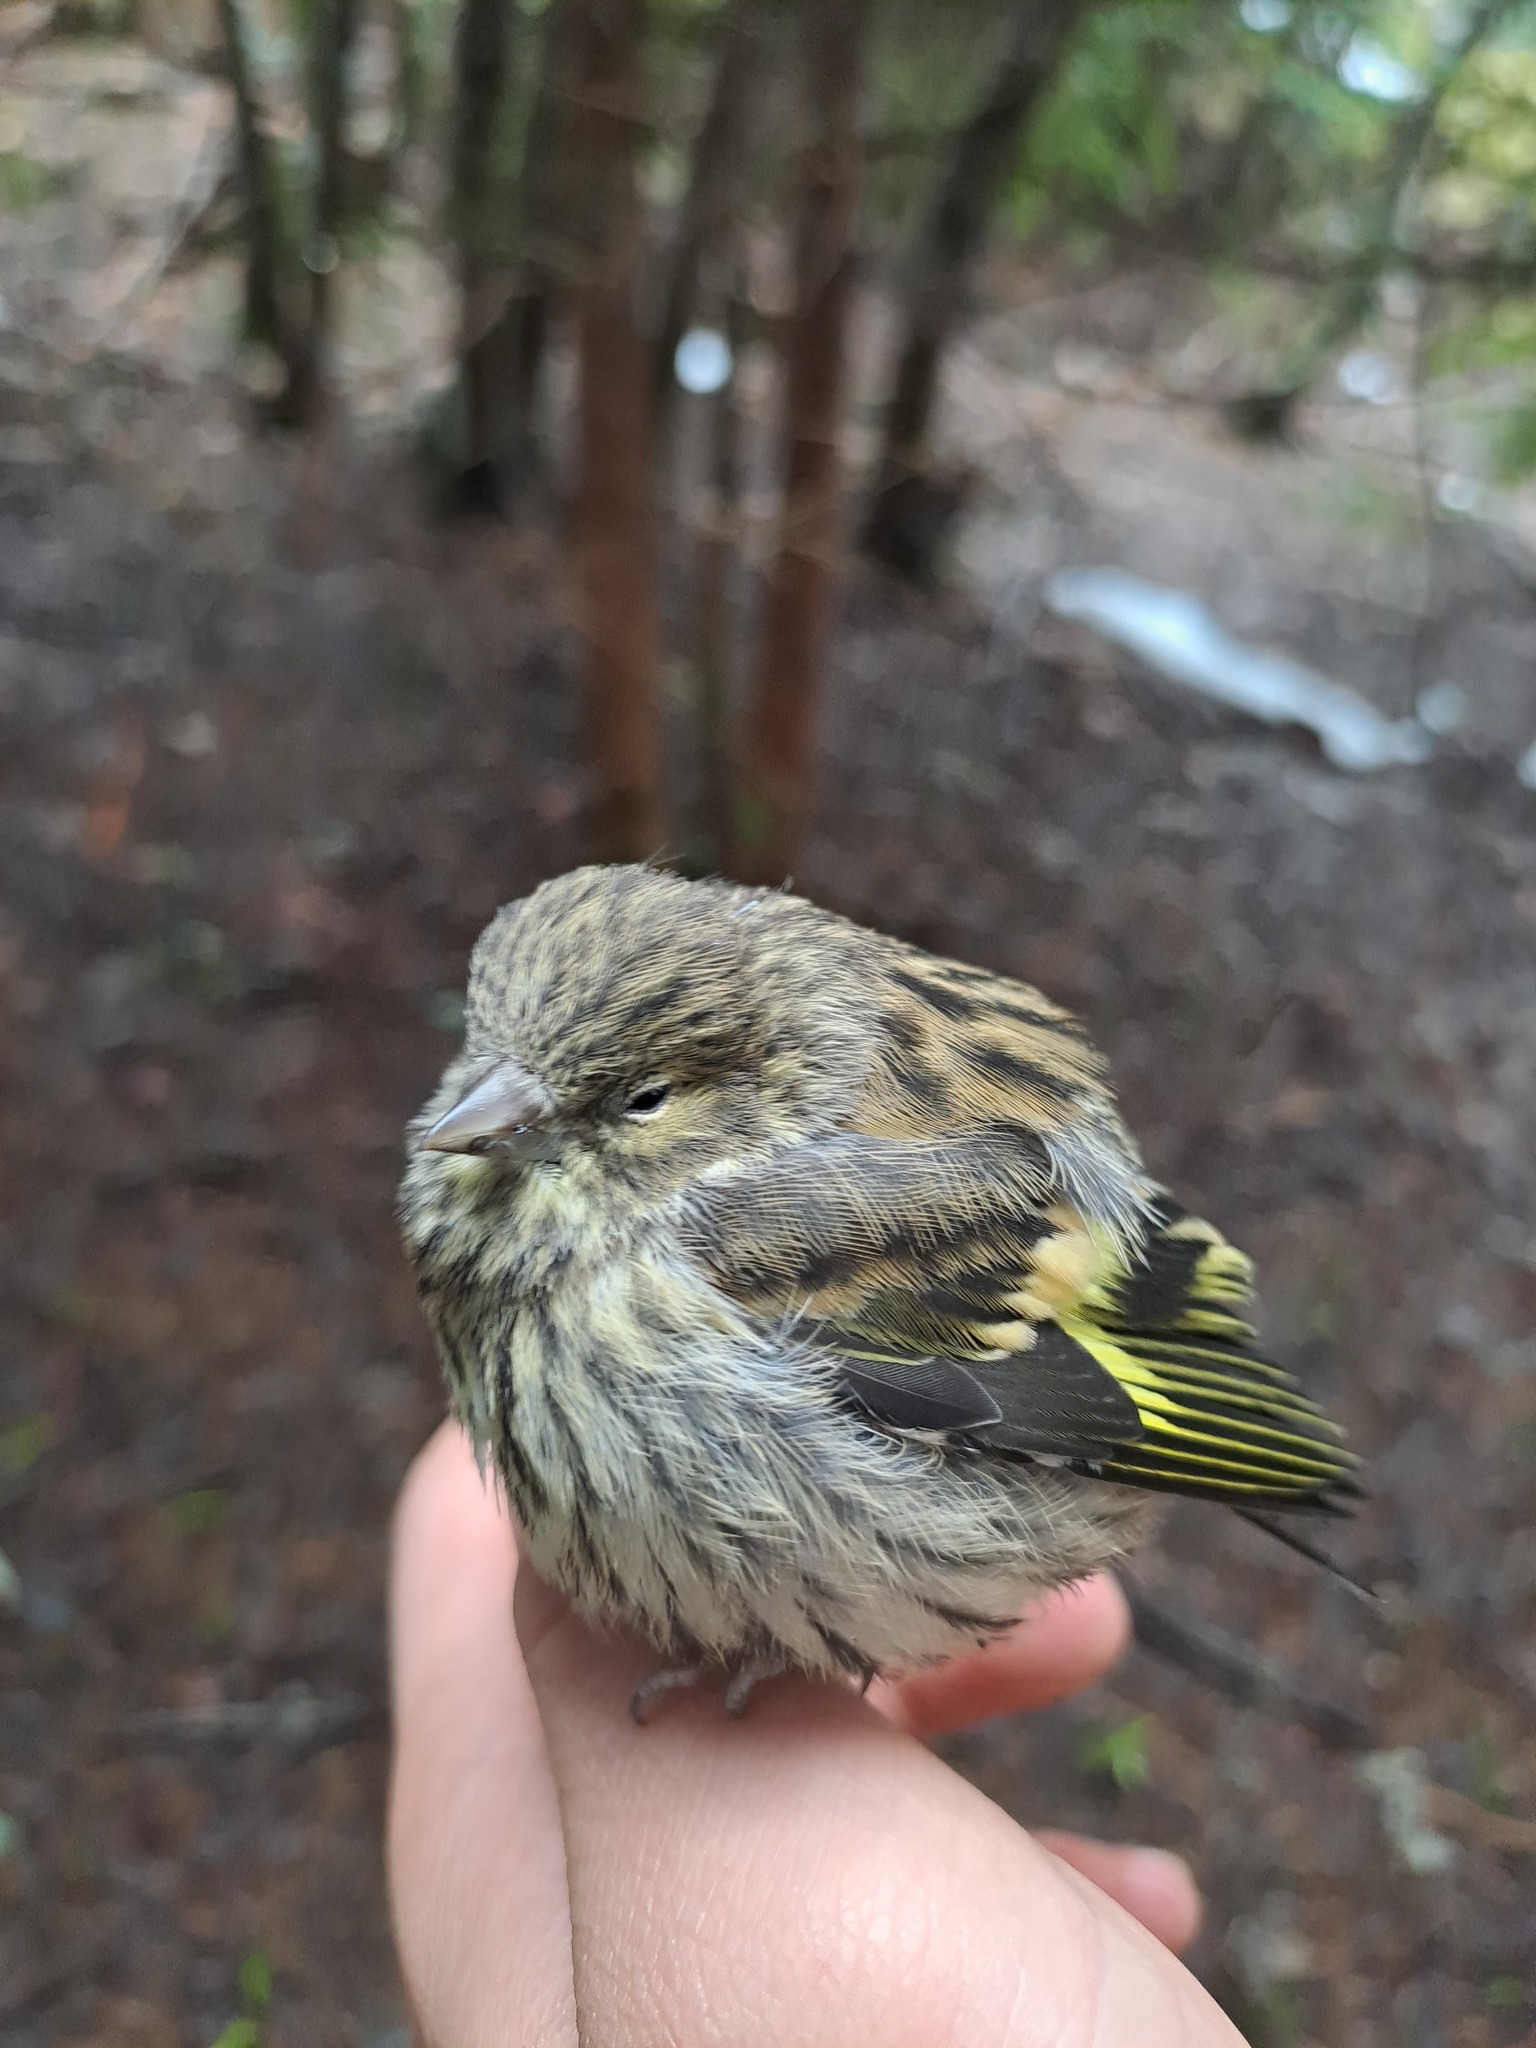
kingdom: Animalia
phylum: Chordata
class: Aves
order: Passeriformes
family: Fringillidae
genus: Spinus
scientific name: Spinus spinus
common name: Eurasian siskin
